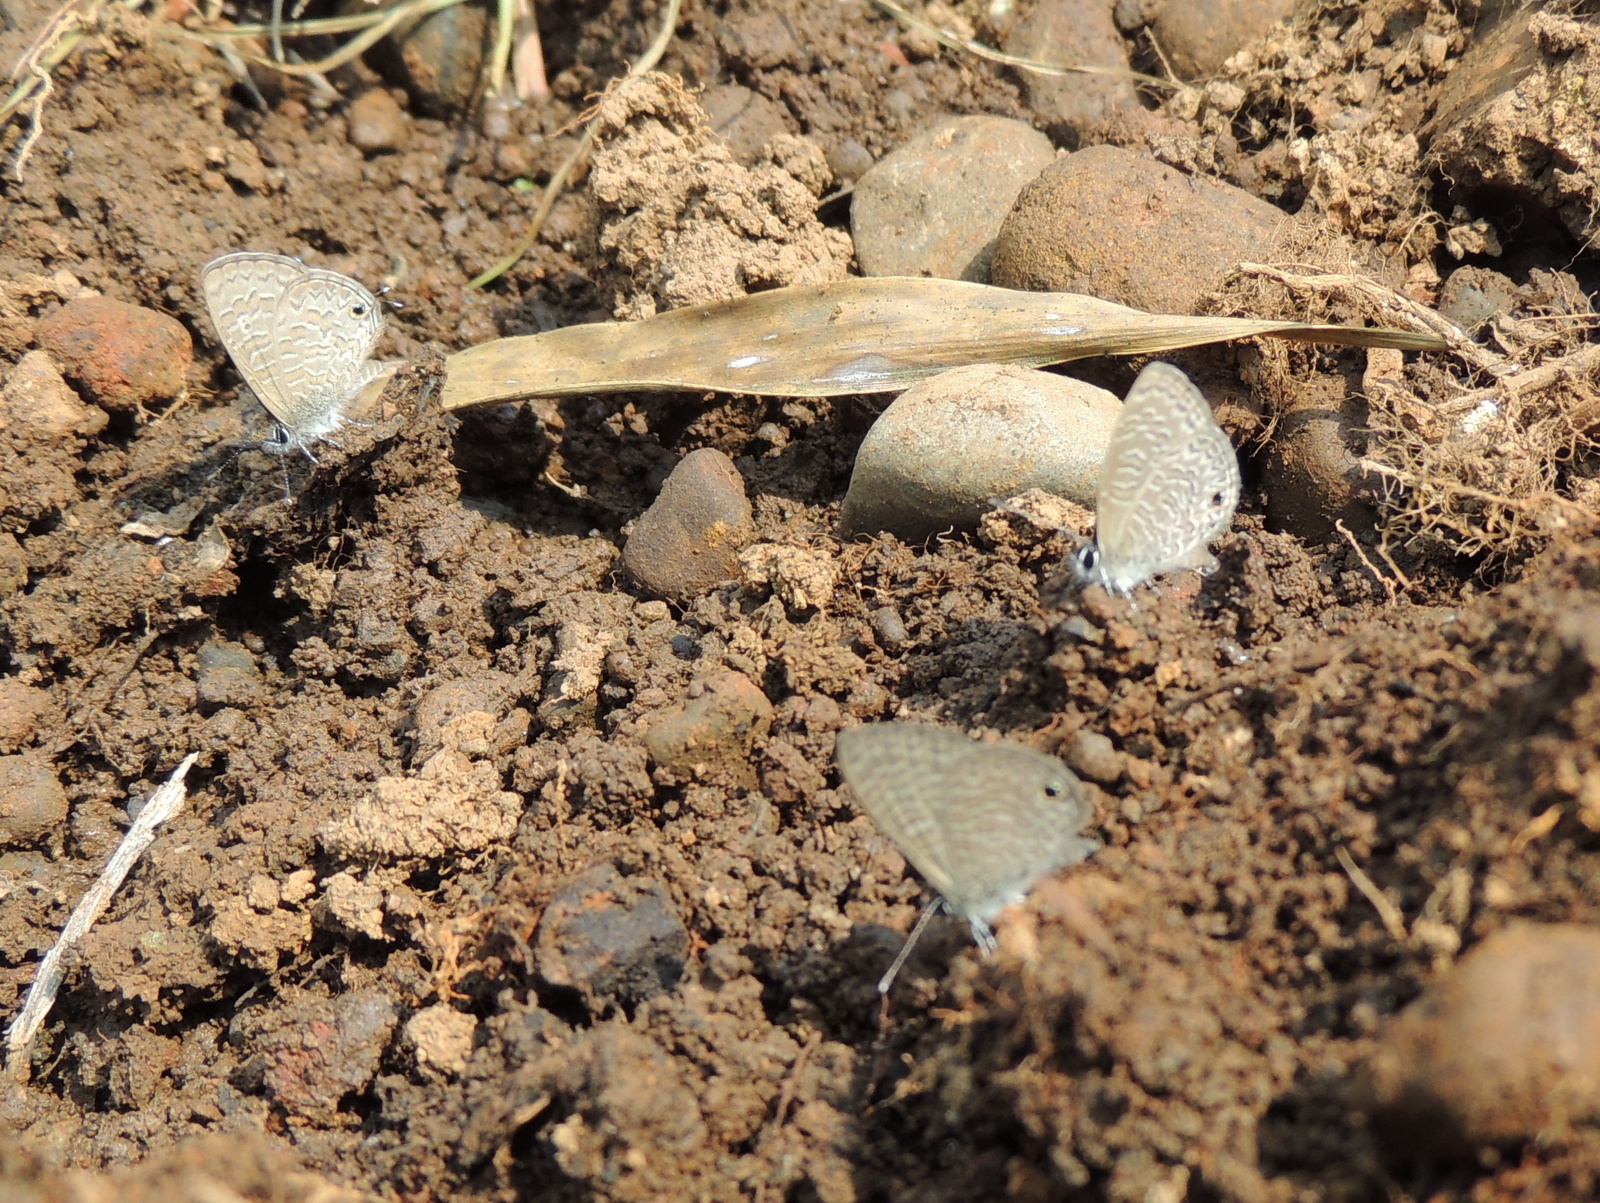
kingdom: Animalia
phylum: Arthropoda
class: Insecta
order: Lepidoptera
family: Lycaenidae
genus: Prosotas
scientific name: Prosotas dubiosa
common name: Tailless lineblue
